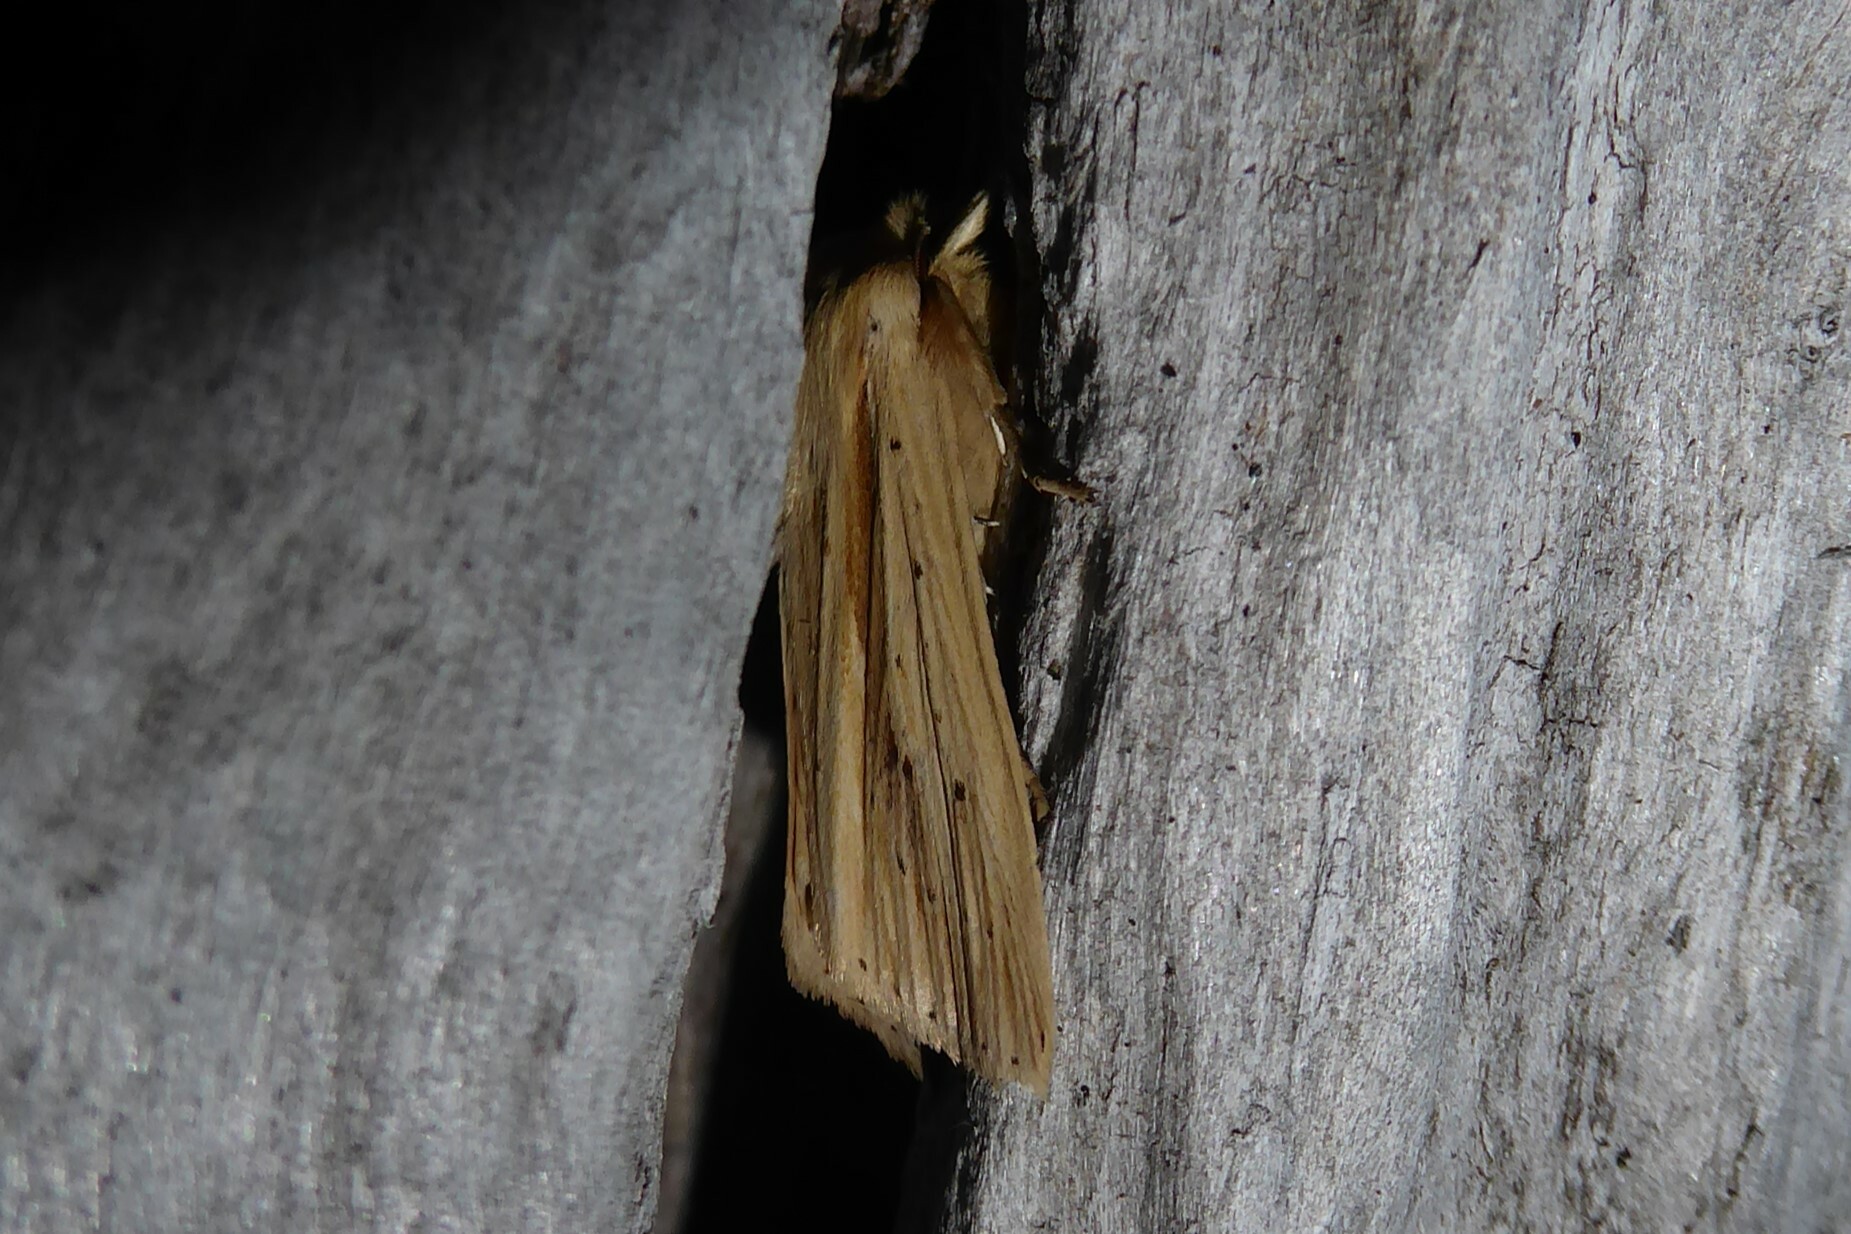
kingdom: Animalia
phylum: Arthropoda
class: Insecta
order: Lepidoptera
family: Noctuidae
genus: Ichneutica
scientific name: Ichneutica semivittata
